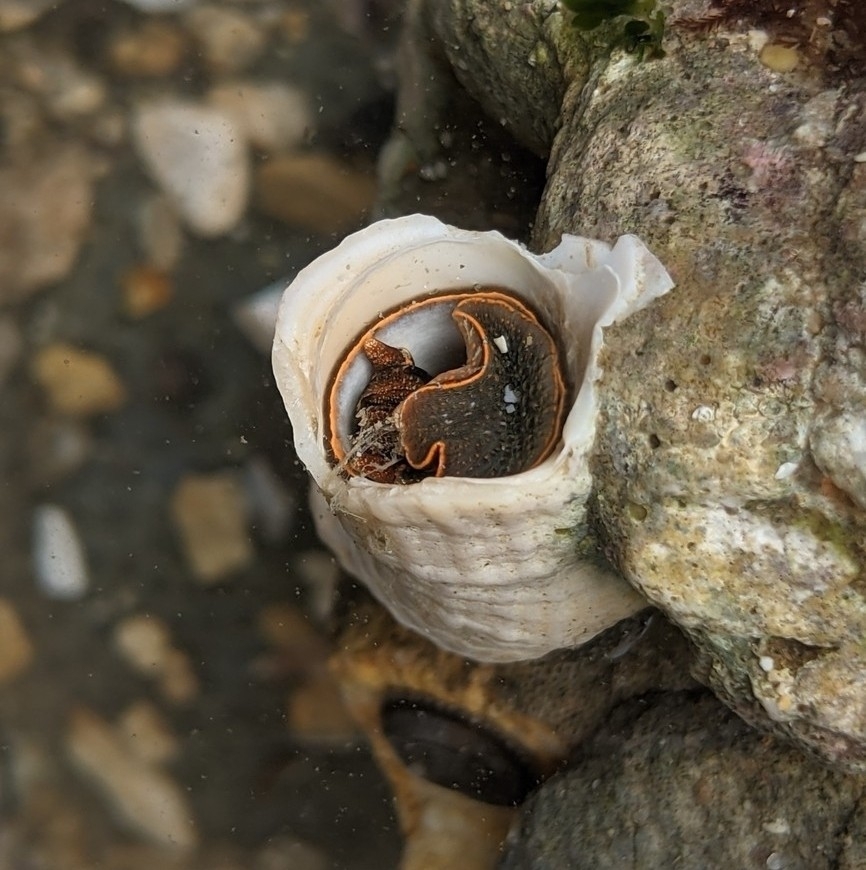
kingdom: Animalia
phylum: Mollusca
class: Gastropoda
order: Littorinimorpha
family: Vermetidae
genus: Thylacodes
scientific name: Thylacodes squamigerus
